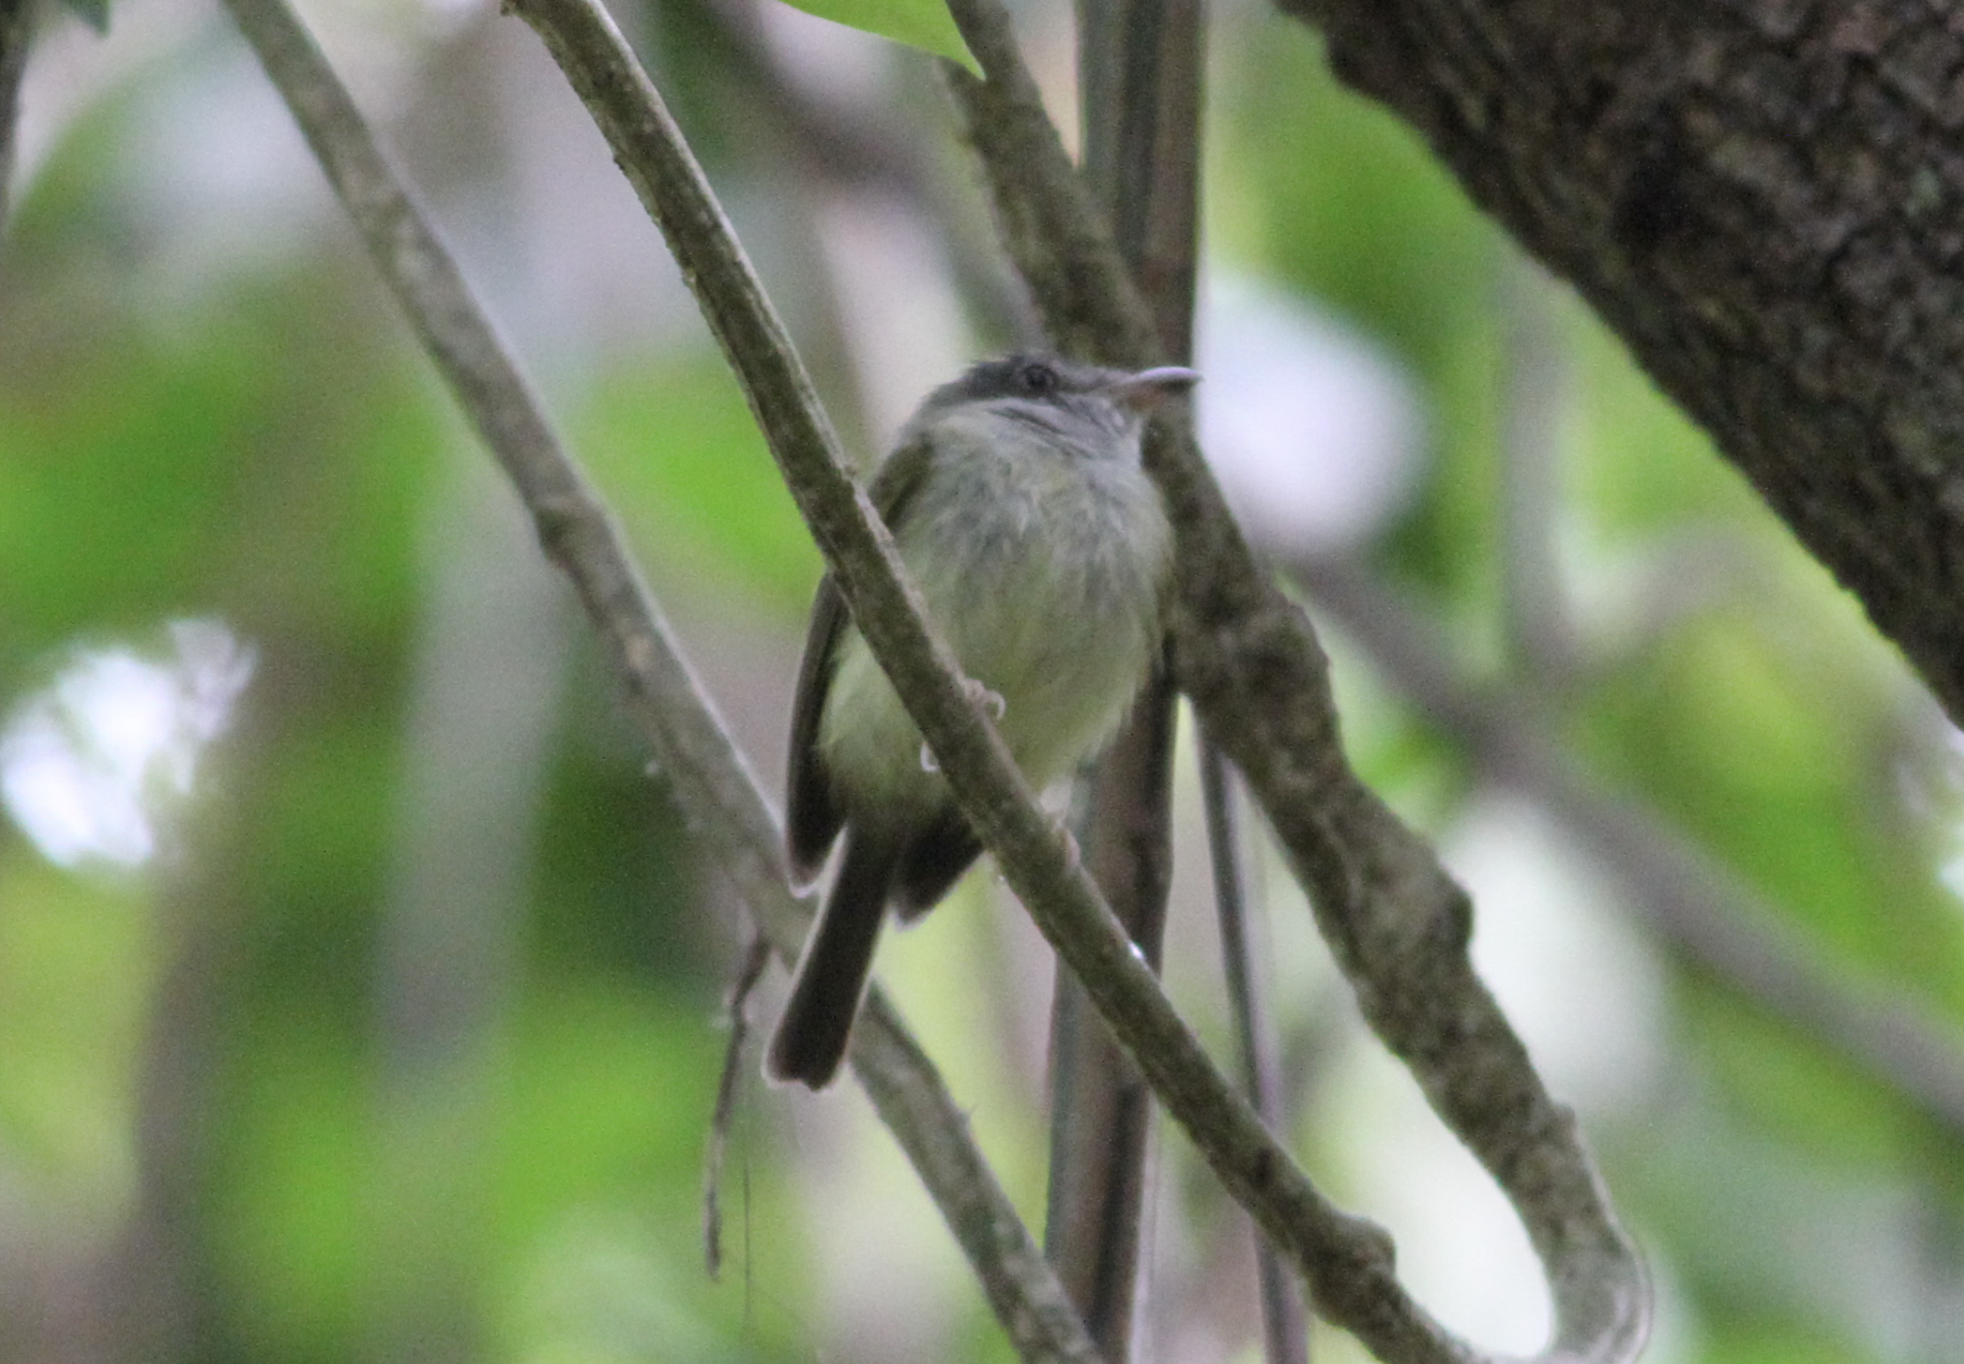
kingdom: Animalia
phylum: Chordata
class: Aves
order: Passeriformes
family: Tyrannidae
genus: Oncostoma
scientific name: Oncostoma cinereigulare
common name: Northern bentbill
